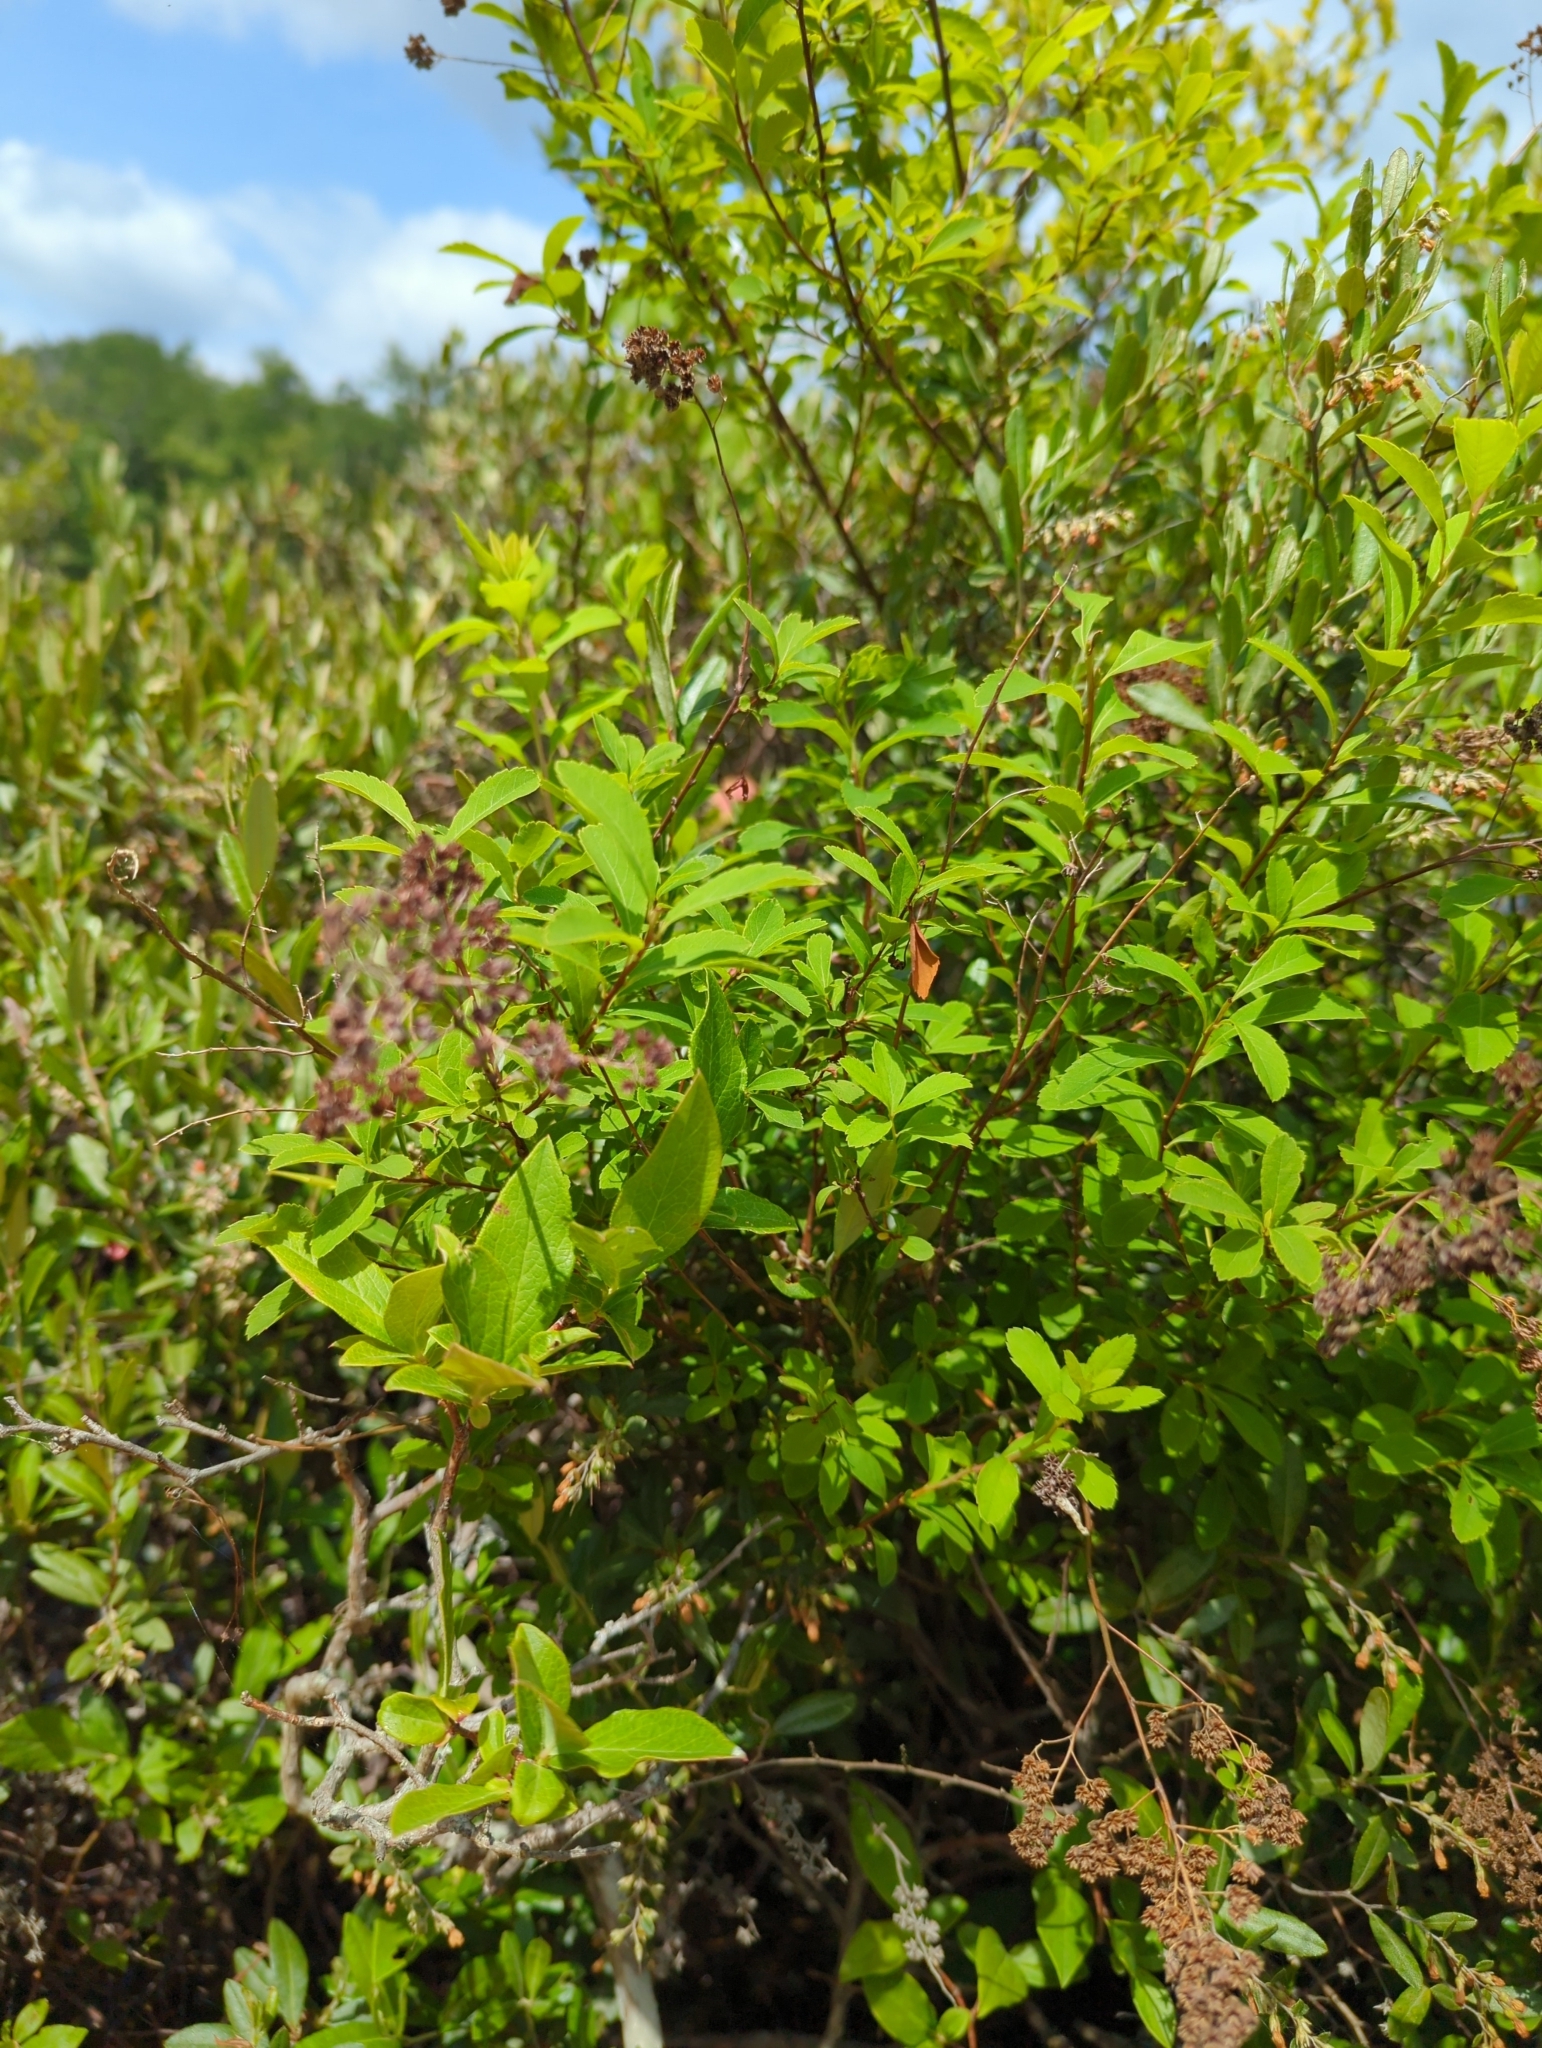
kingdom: Plantae
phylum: Tracheophyta
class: Magnoliopsida
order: Rosales
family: Rosaceae
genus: Spiraea
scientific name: Spiraea alba
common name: Pale bridewort
